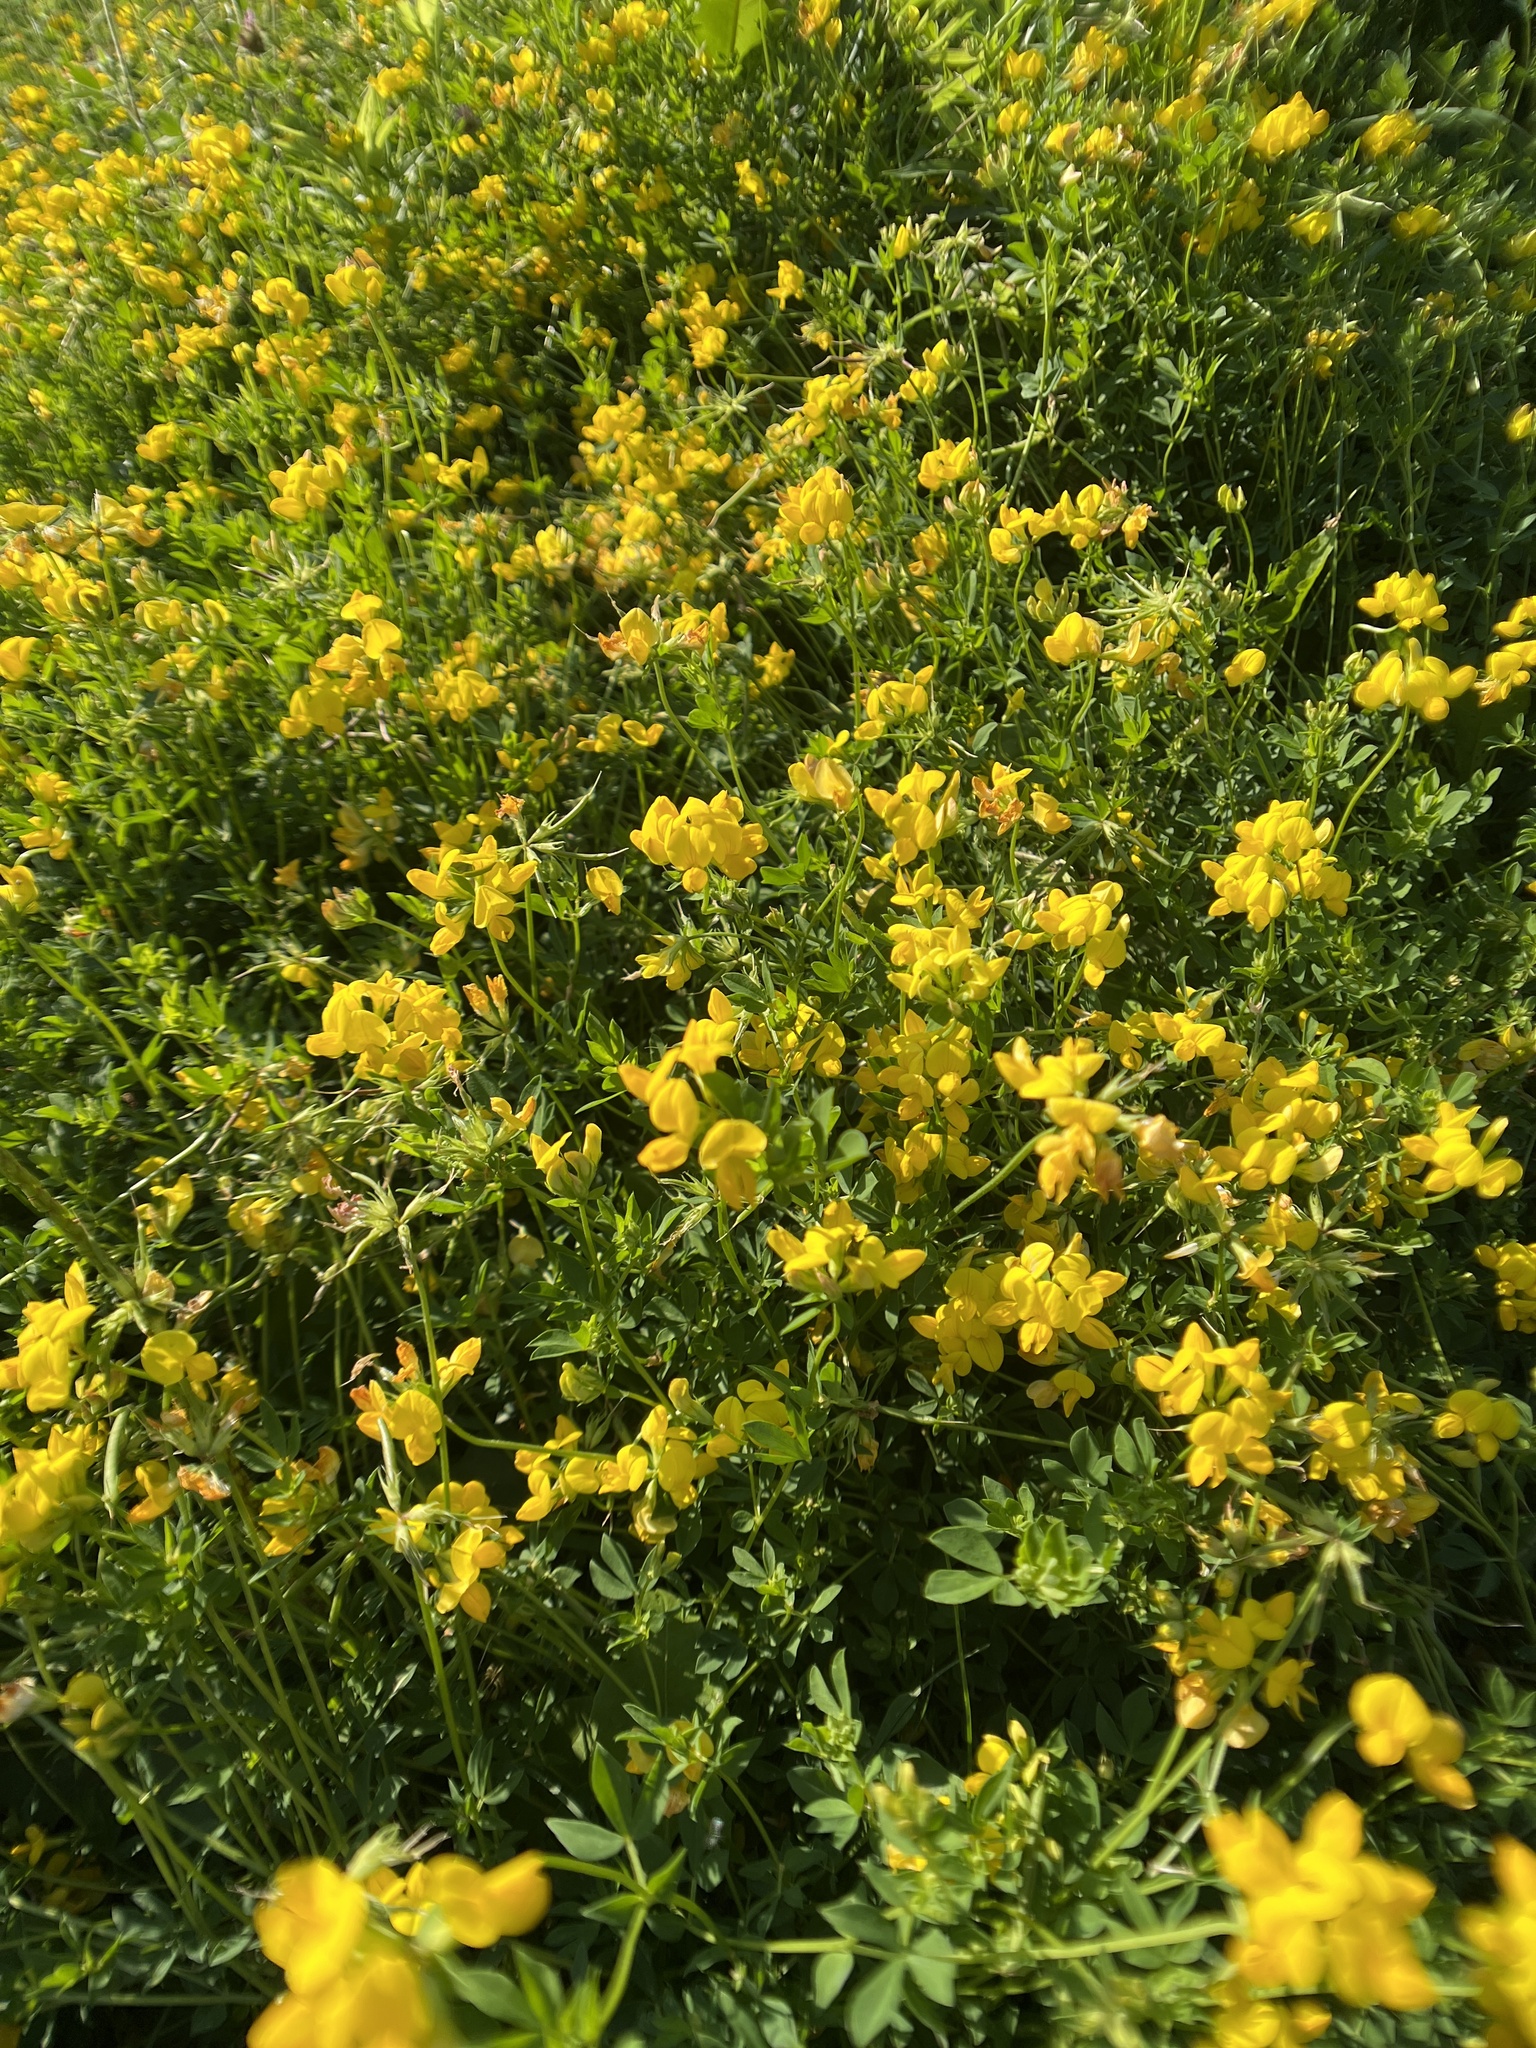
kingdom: Plantae
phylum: Tracheophyta
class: Magnoliopsida
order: Fabales
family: Fabaceae
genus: Lotus
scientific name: Lotus corniculatus
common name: Common bird's-foot-trefoil
